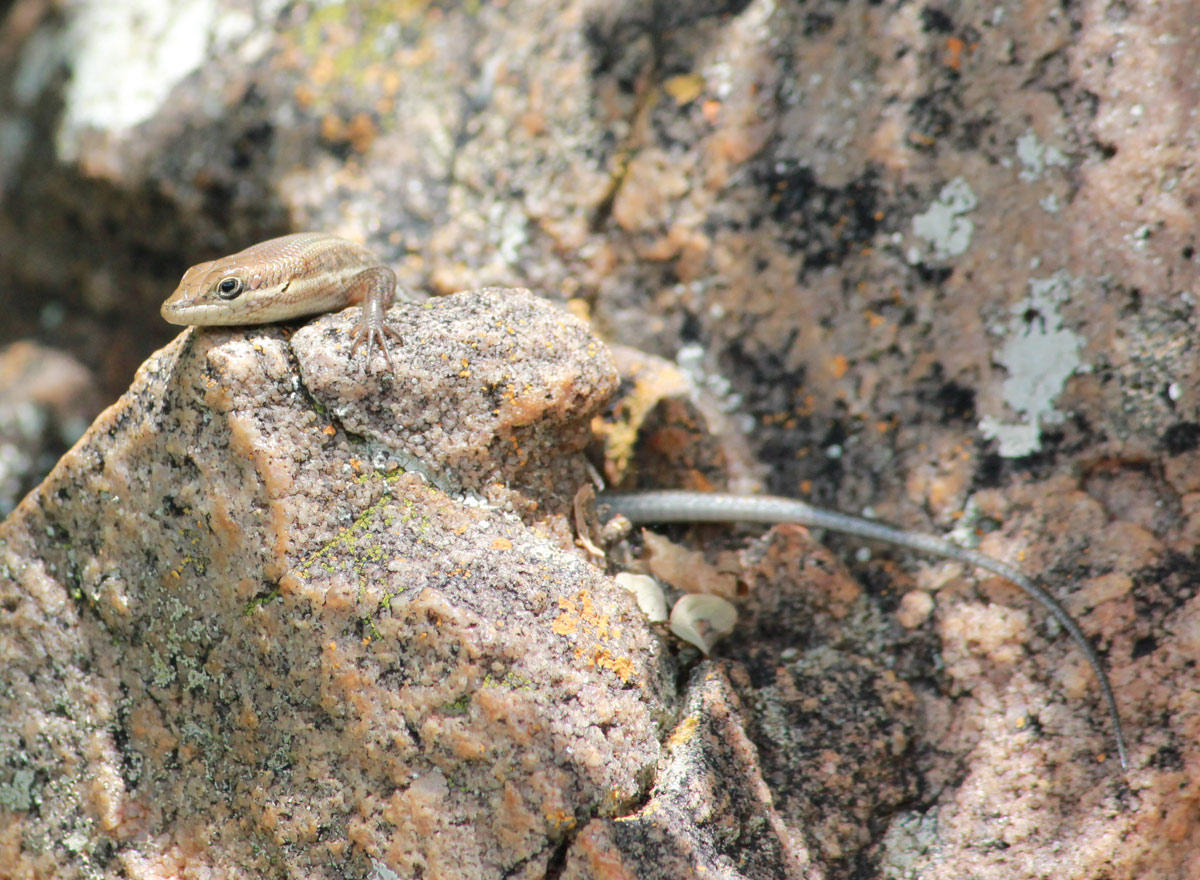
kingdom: Animalia
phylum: Chordata
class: Squamata
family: Scincidae
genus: Trachylepis
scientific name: Trachylepis varia
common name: Eastern variable skink
